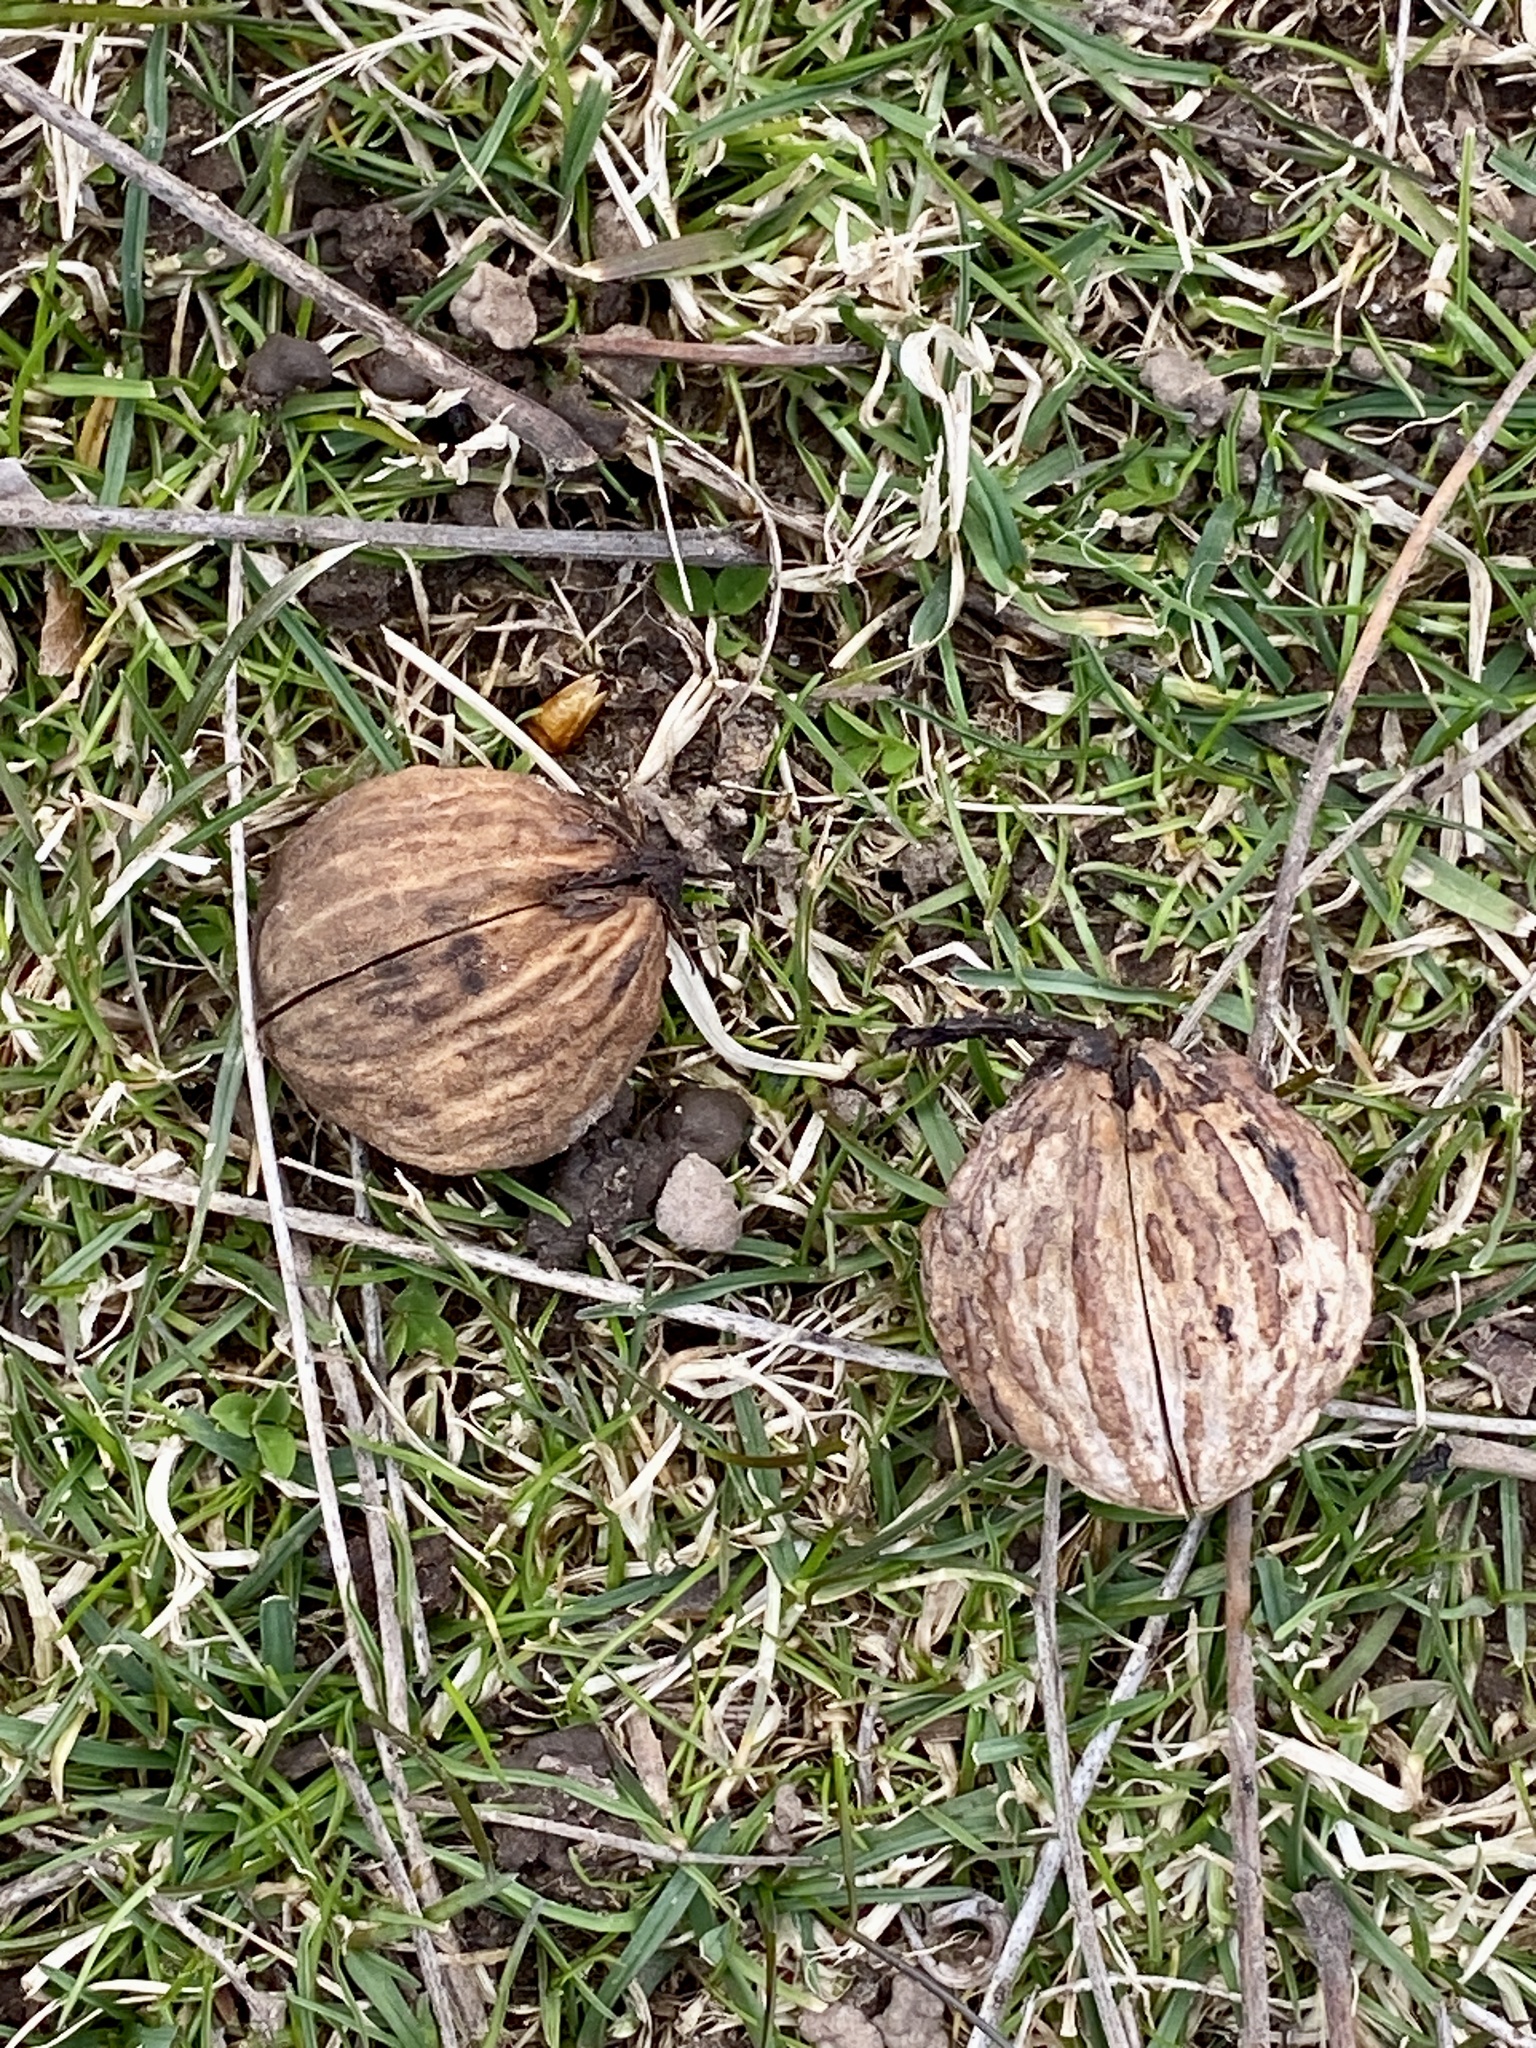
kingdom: Plantae
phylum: Tracheophyta
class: Magnoliopsida
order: Fagales
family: Juglandaceae
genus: Juglans
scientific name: Juglans nigra
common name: Black walnut
